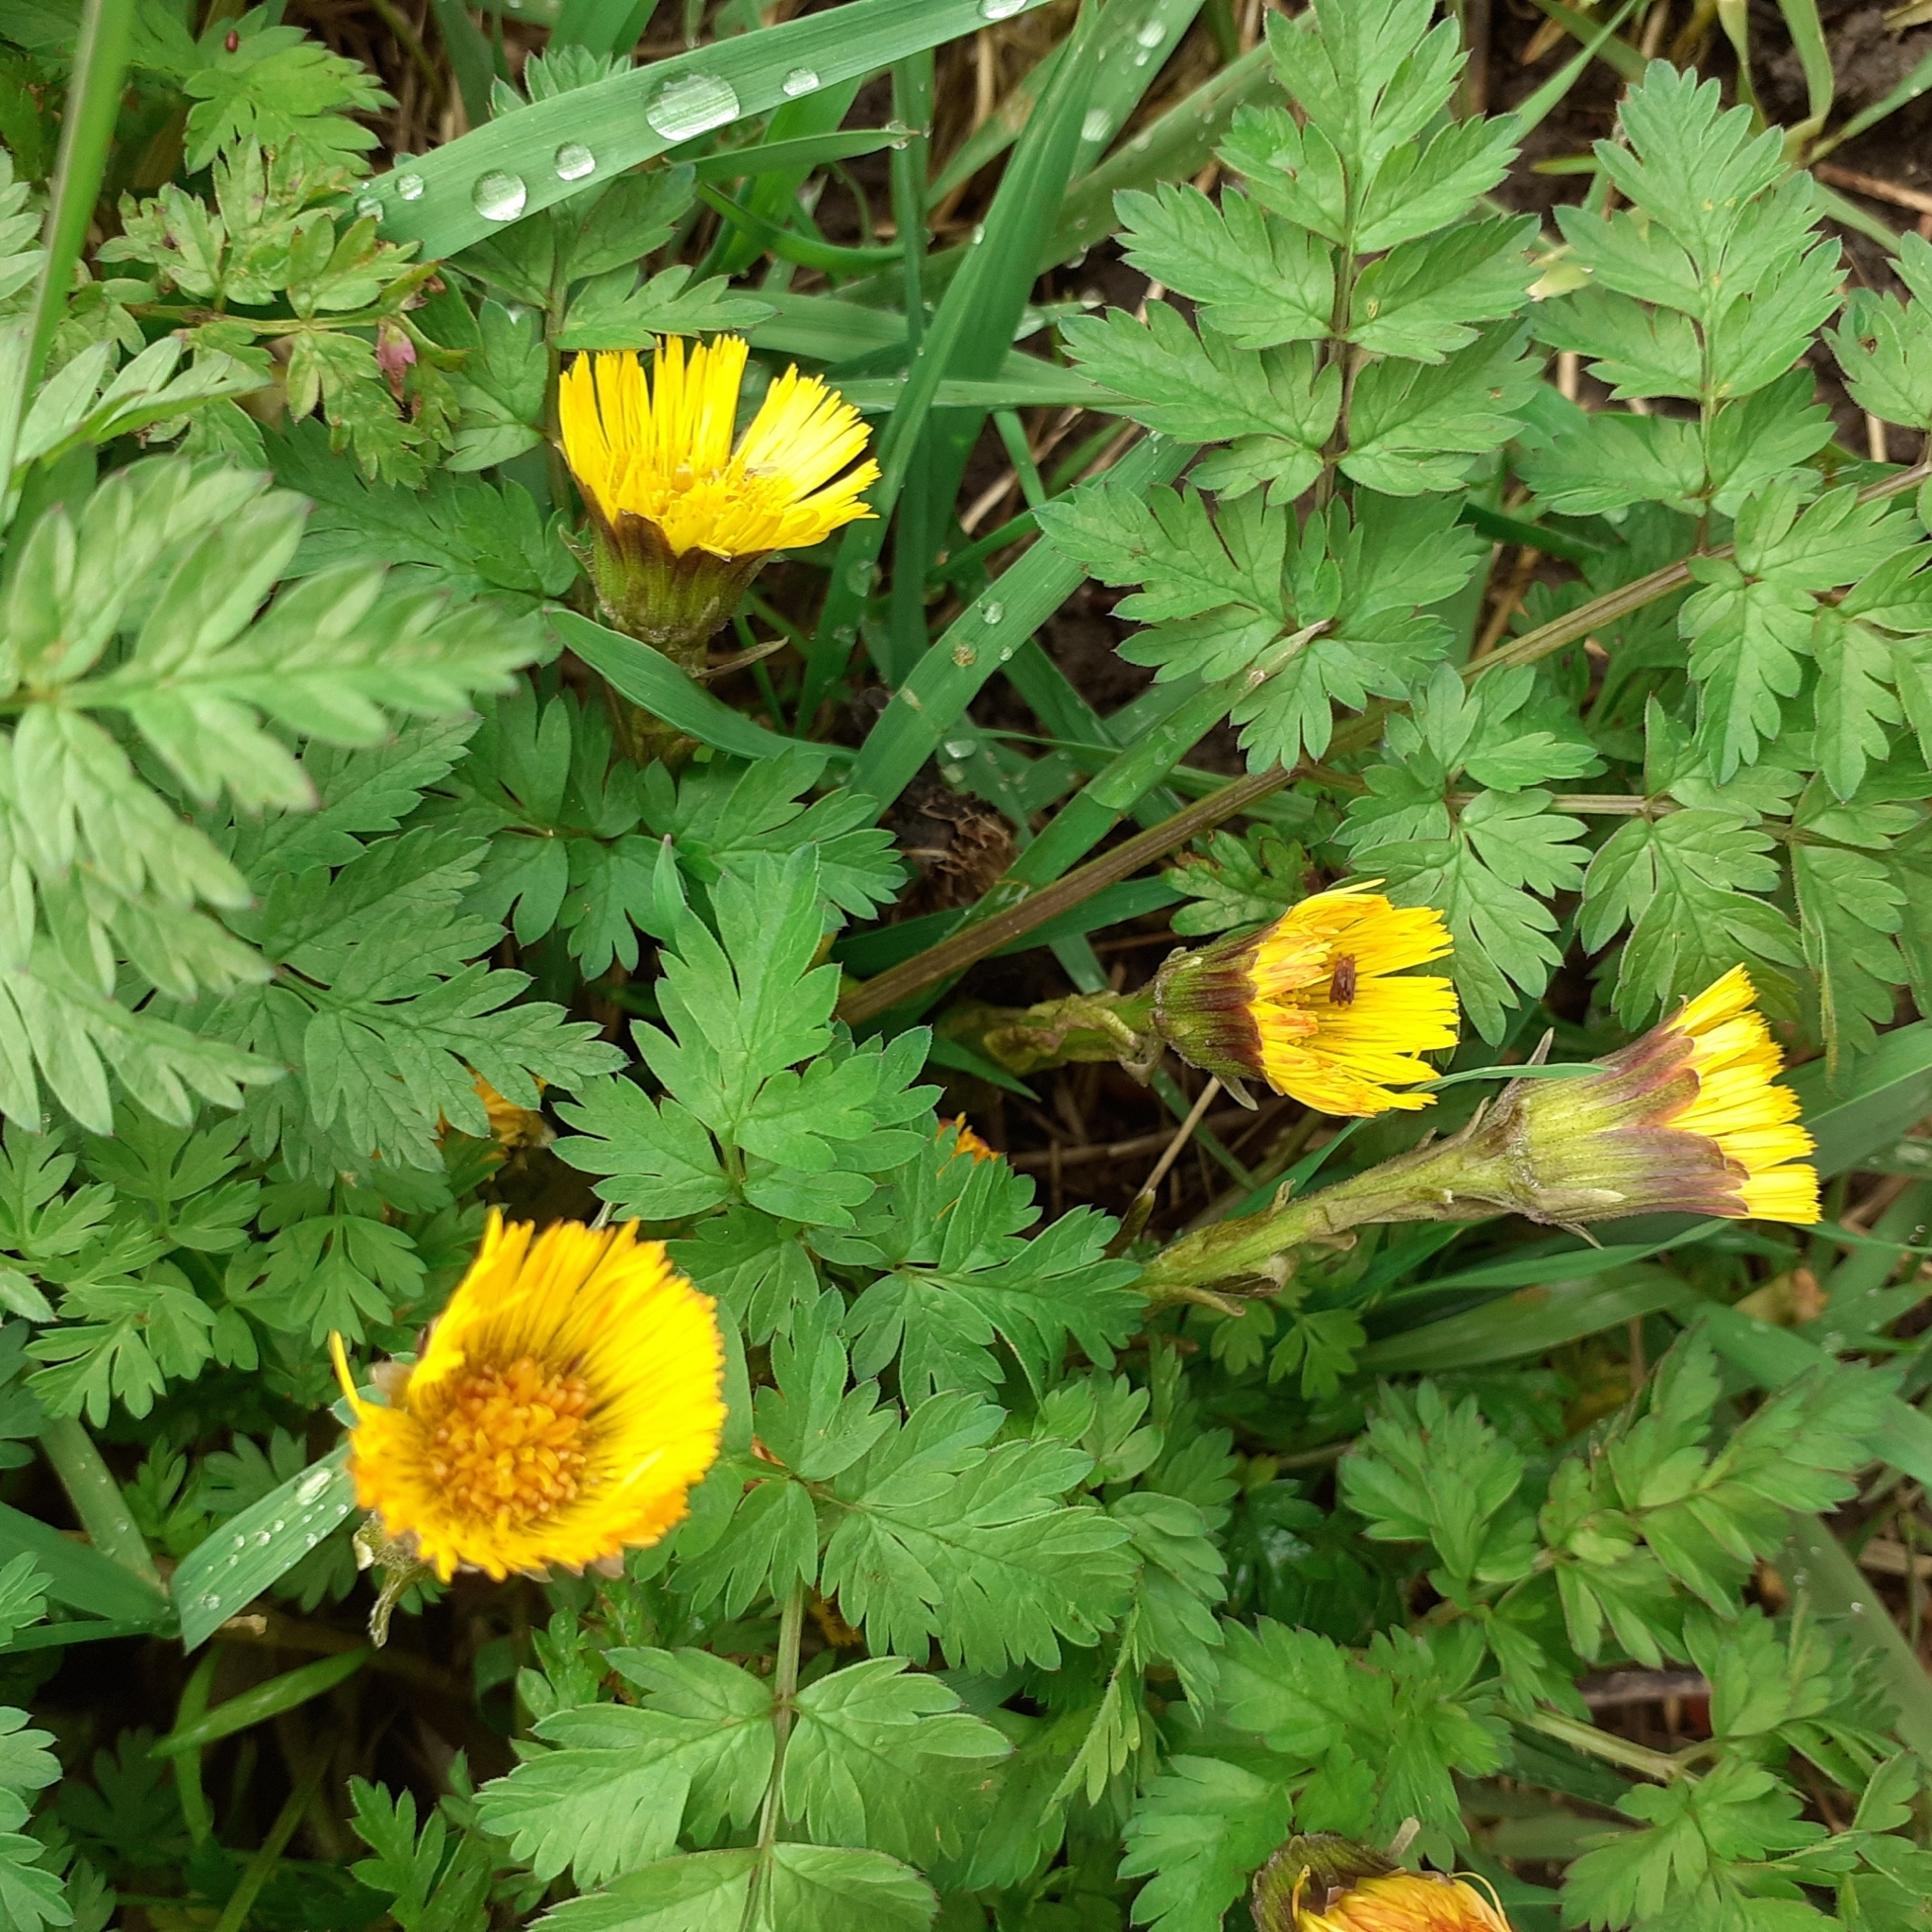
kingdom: Plantae
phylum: Tracheophyta
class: Magnoliopsida
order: Asterales
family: Asteraceae
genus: Tussilago
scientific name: Tussilago farfara
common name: Coltsfoot
